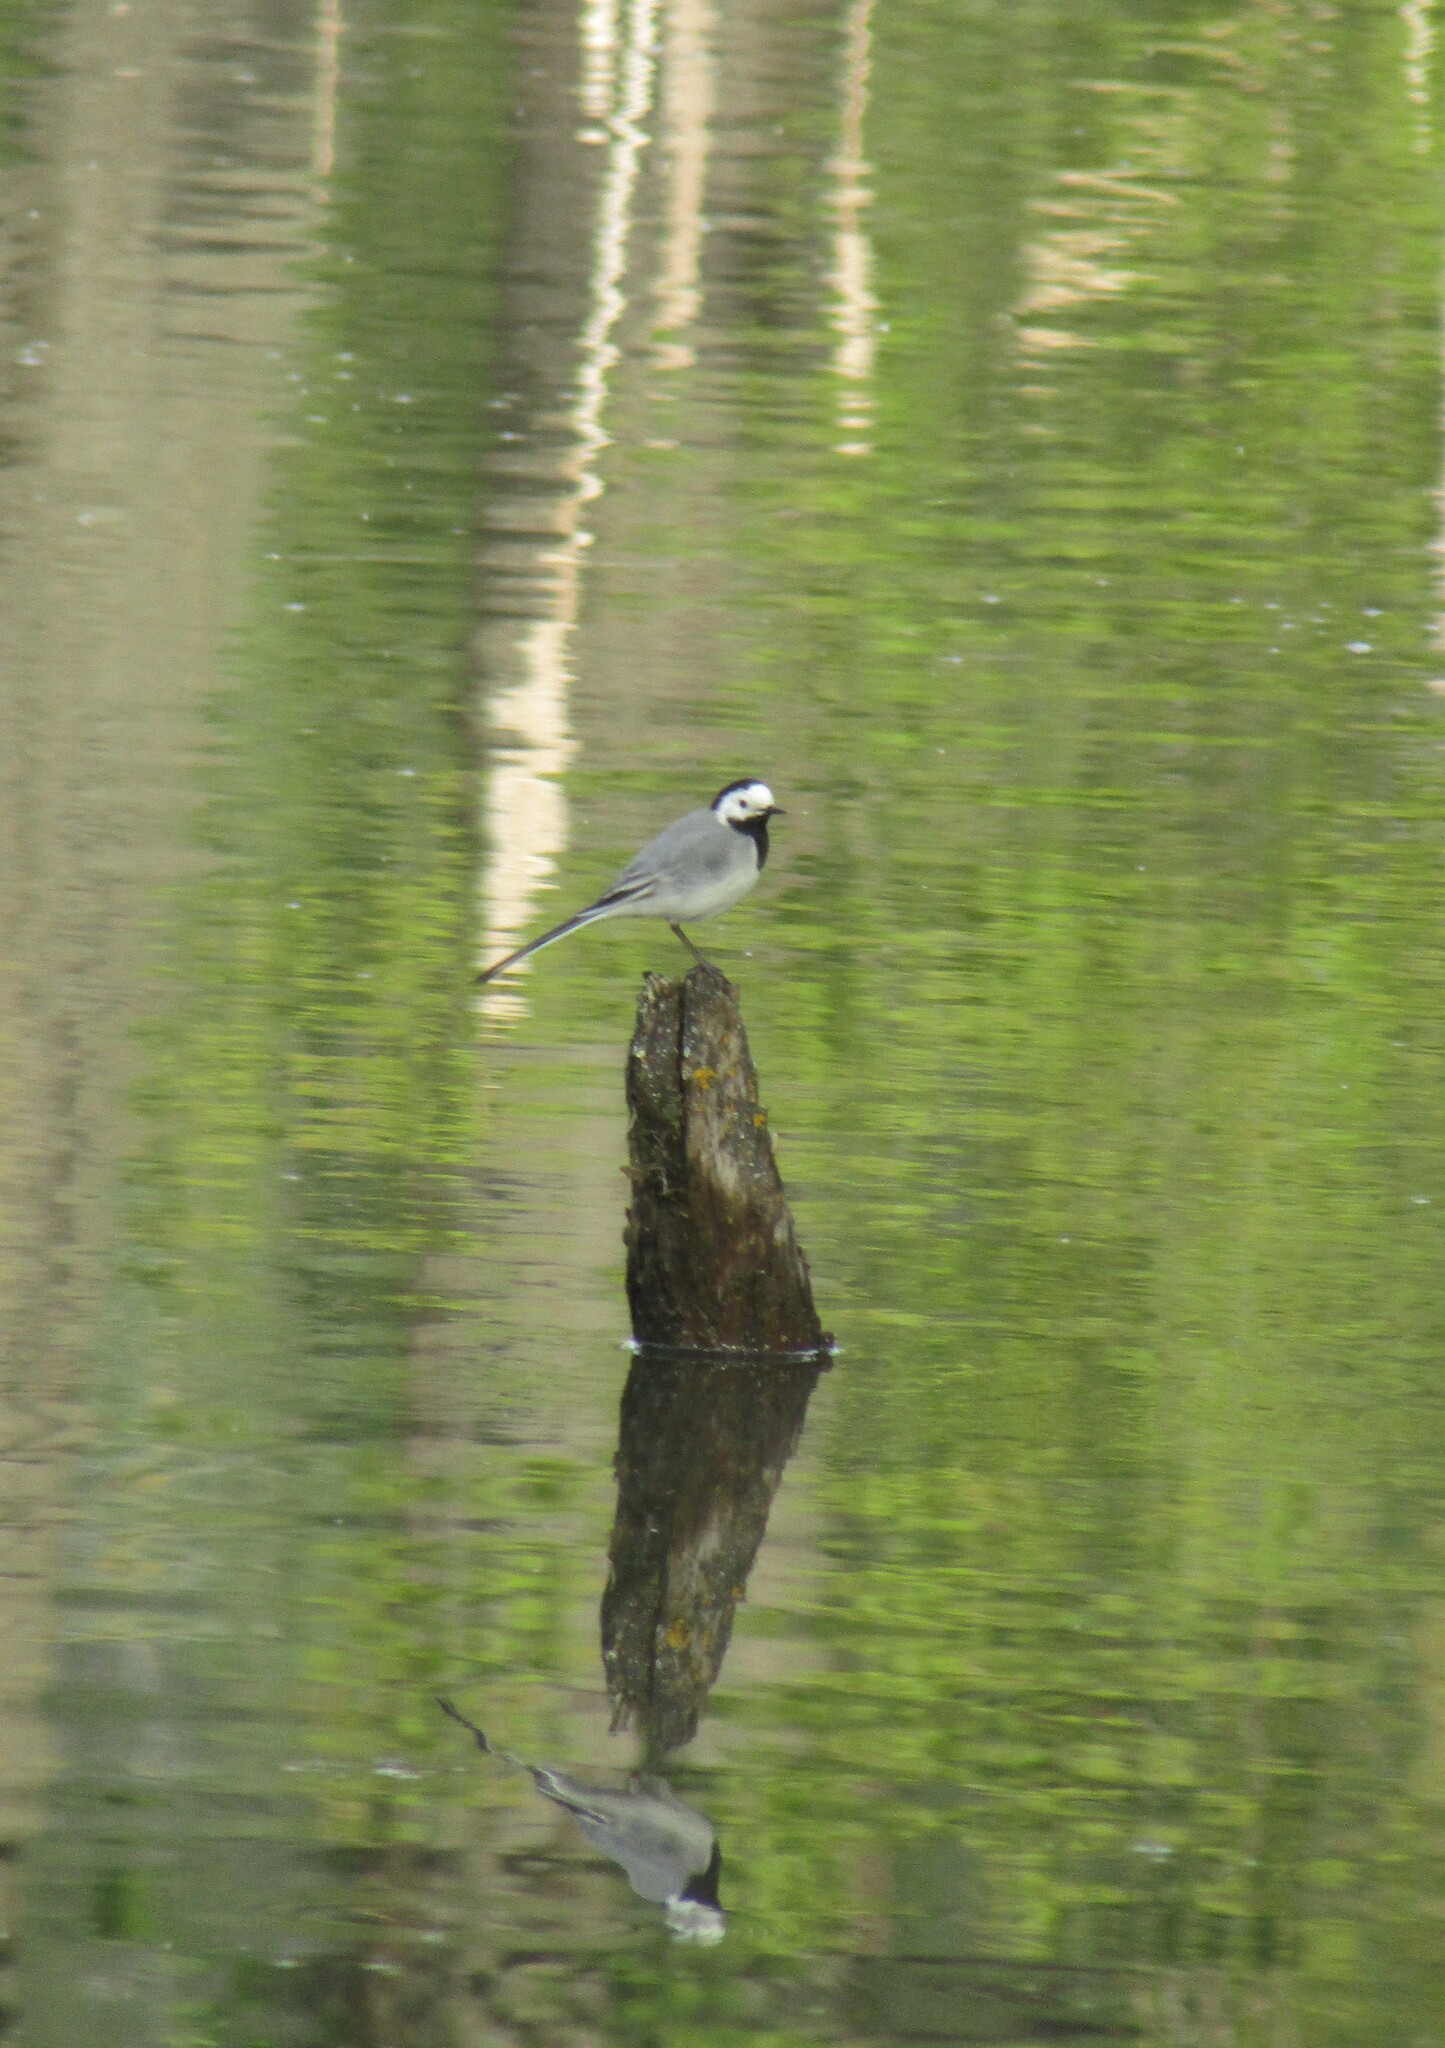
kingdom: Animalia
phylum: Chordata
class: Aves
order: Passeriformes
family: Motacillidae
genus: Motacilla
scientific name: Motacilla alba
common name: White wagtail
